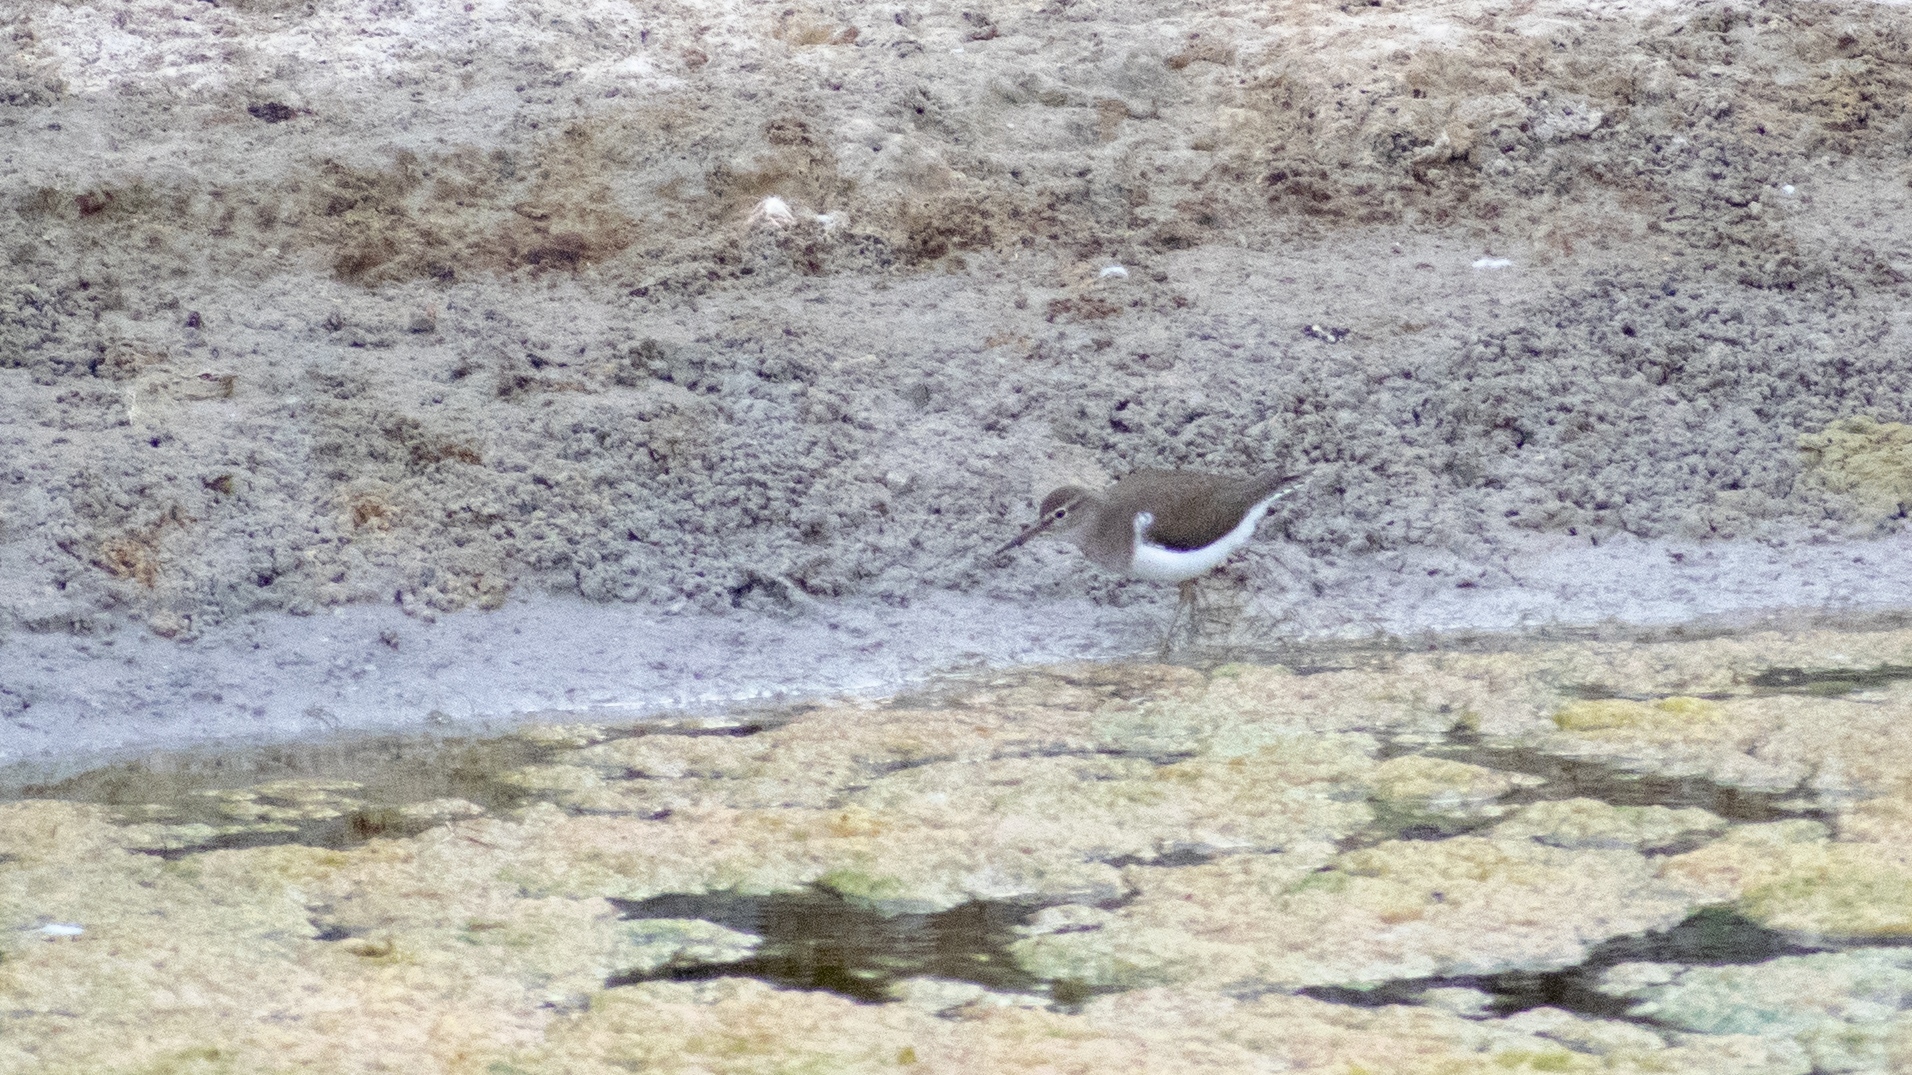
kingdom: Animalia
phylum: Chordata
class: Aves
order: Charadriiformes
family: Scolopacidae
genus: Actitis
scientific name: Actitis hypoleucos
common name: Common sandpiper
